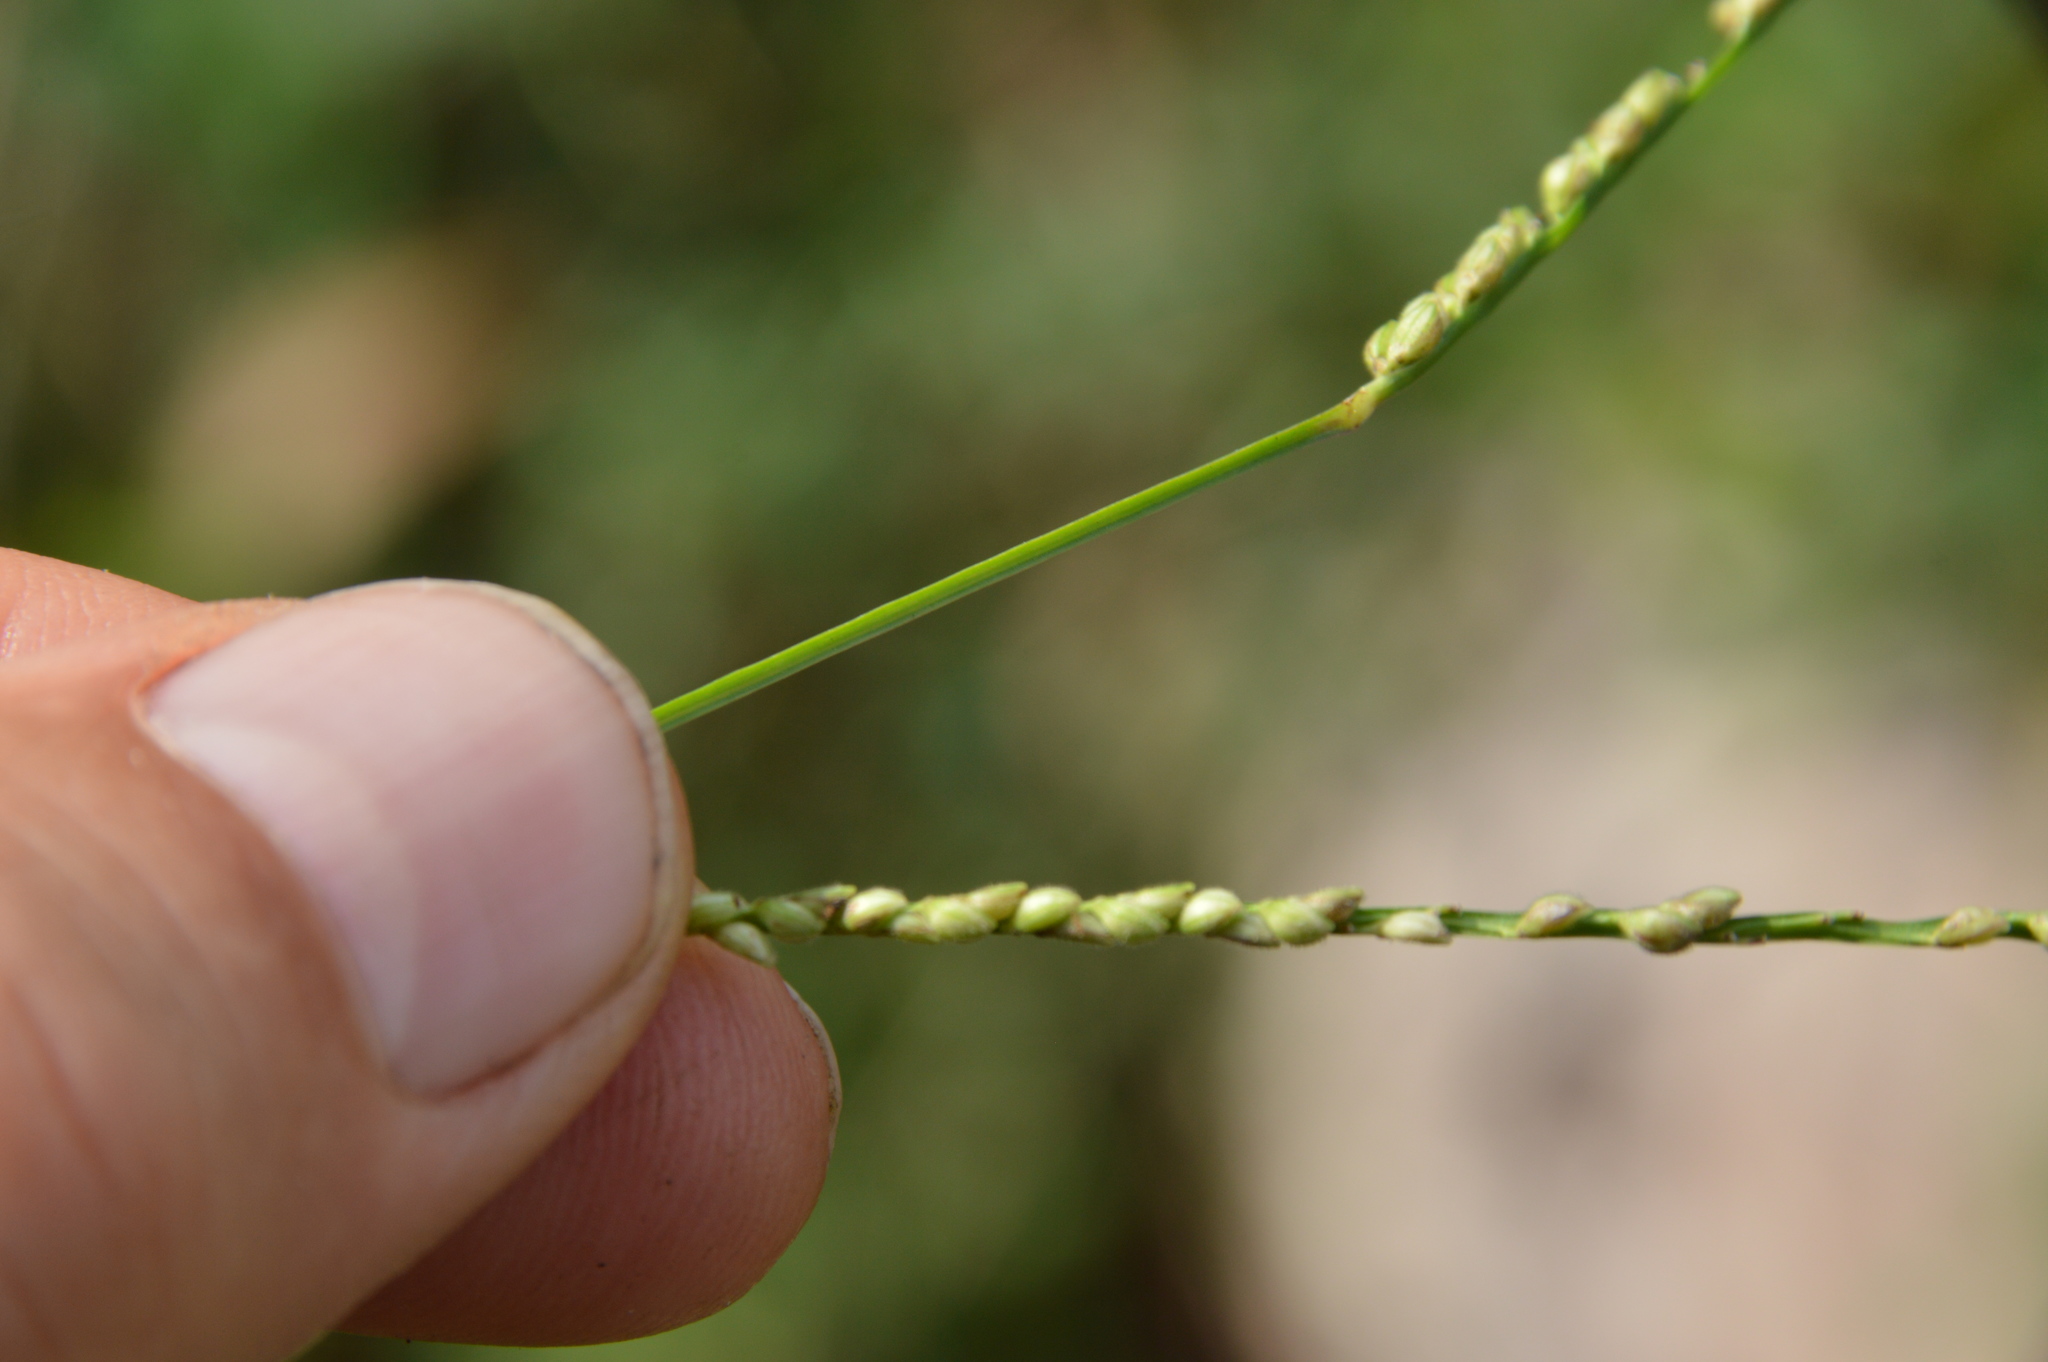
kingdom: Plantae
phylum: Tracheophyta
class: Liliopsida
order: Poales
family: Poaceae
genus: Paspalum
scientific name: Paspalum langei
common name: Rusty-seed paspalum
